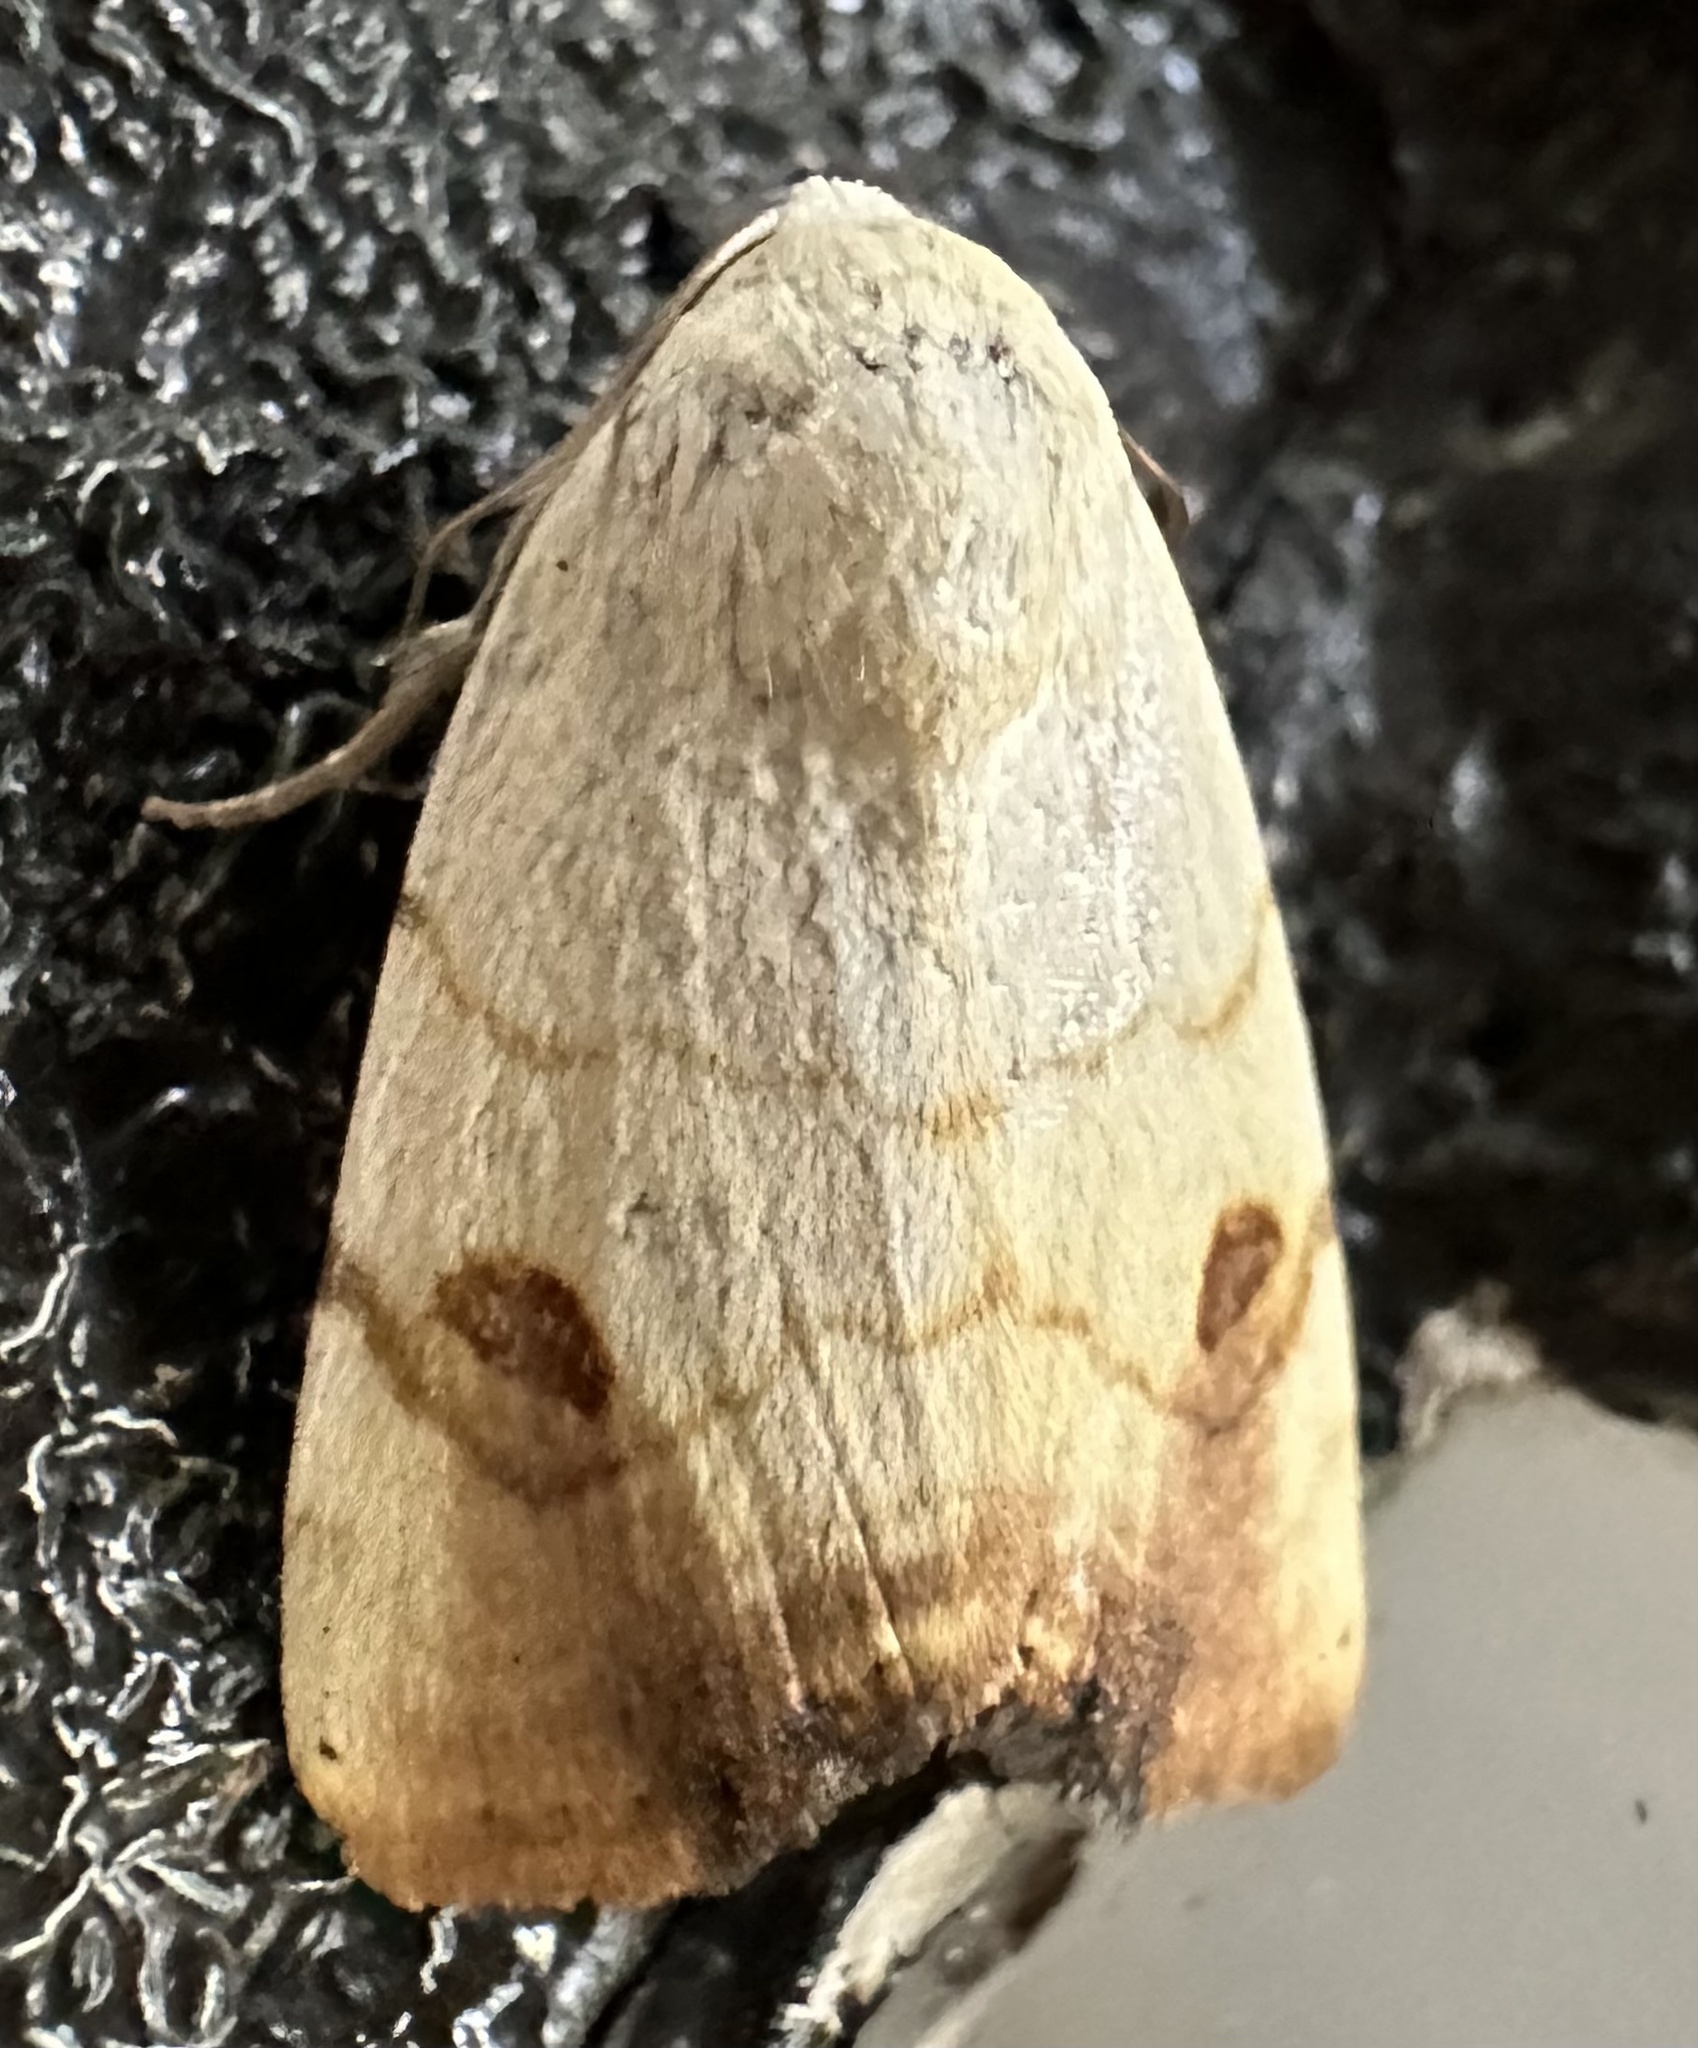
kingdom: Animalia
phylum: Arthropoda
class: Insecta
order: Lepidoptera
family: Nolidae
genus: Xanthodes
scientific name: Xanthodes albago
